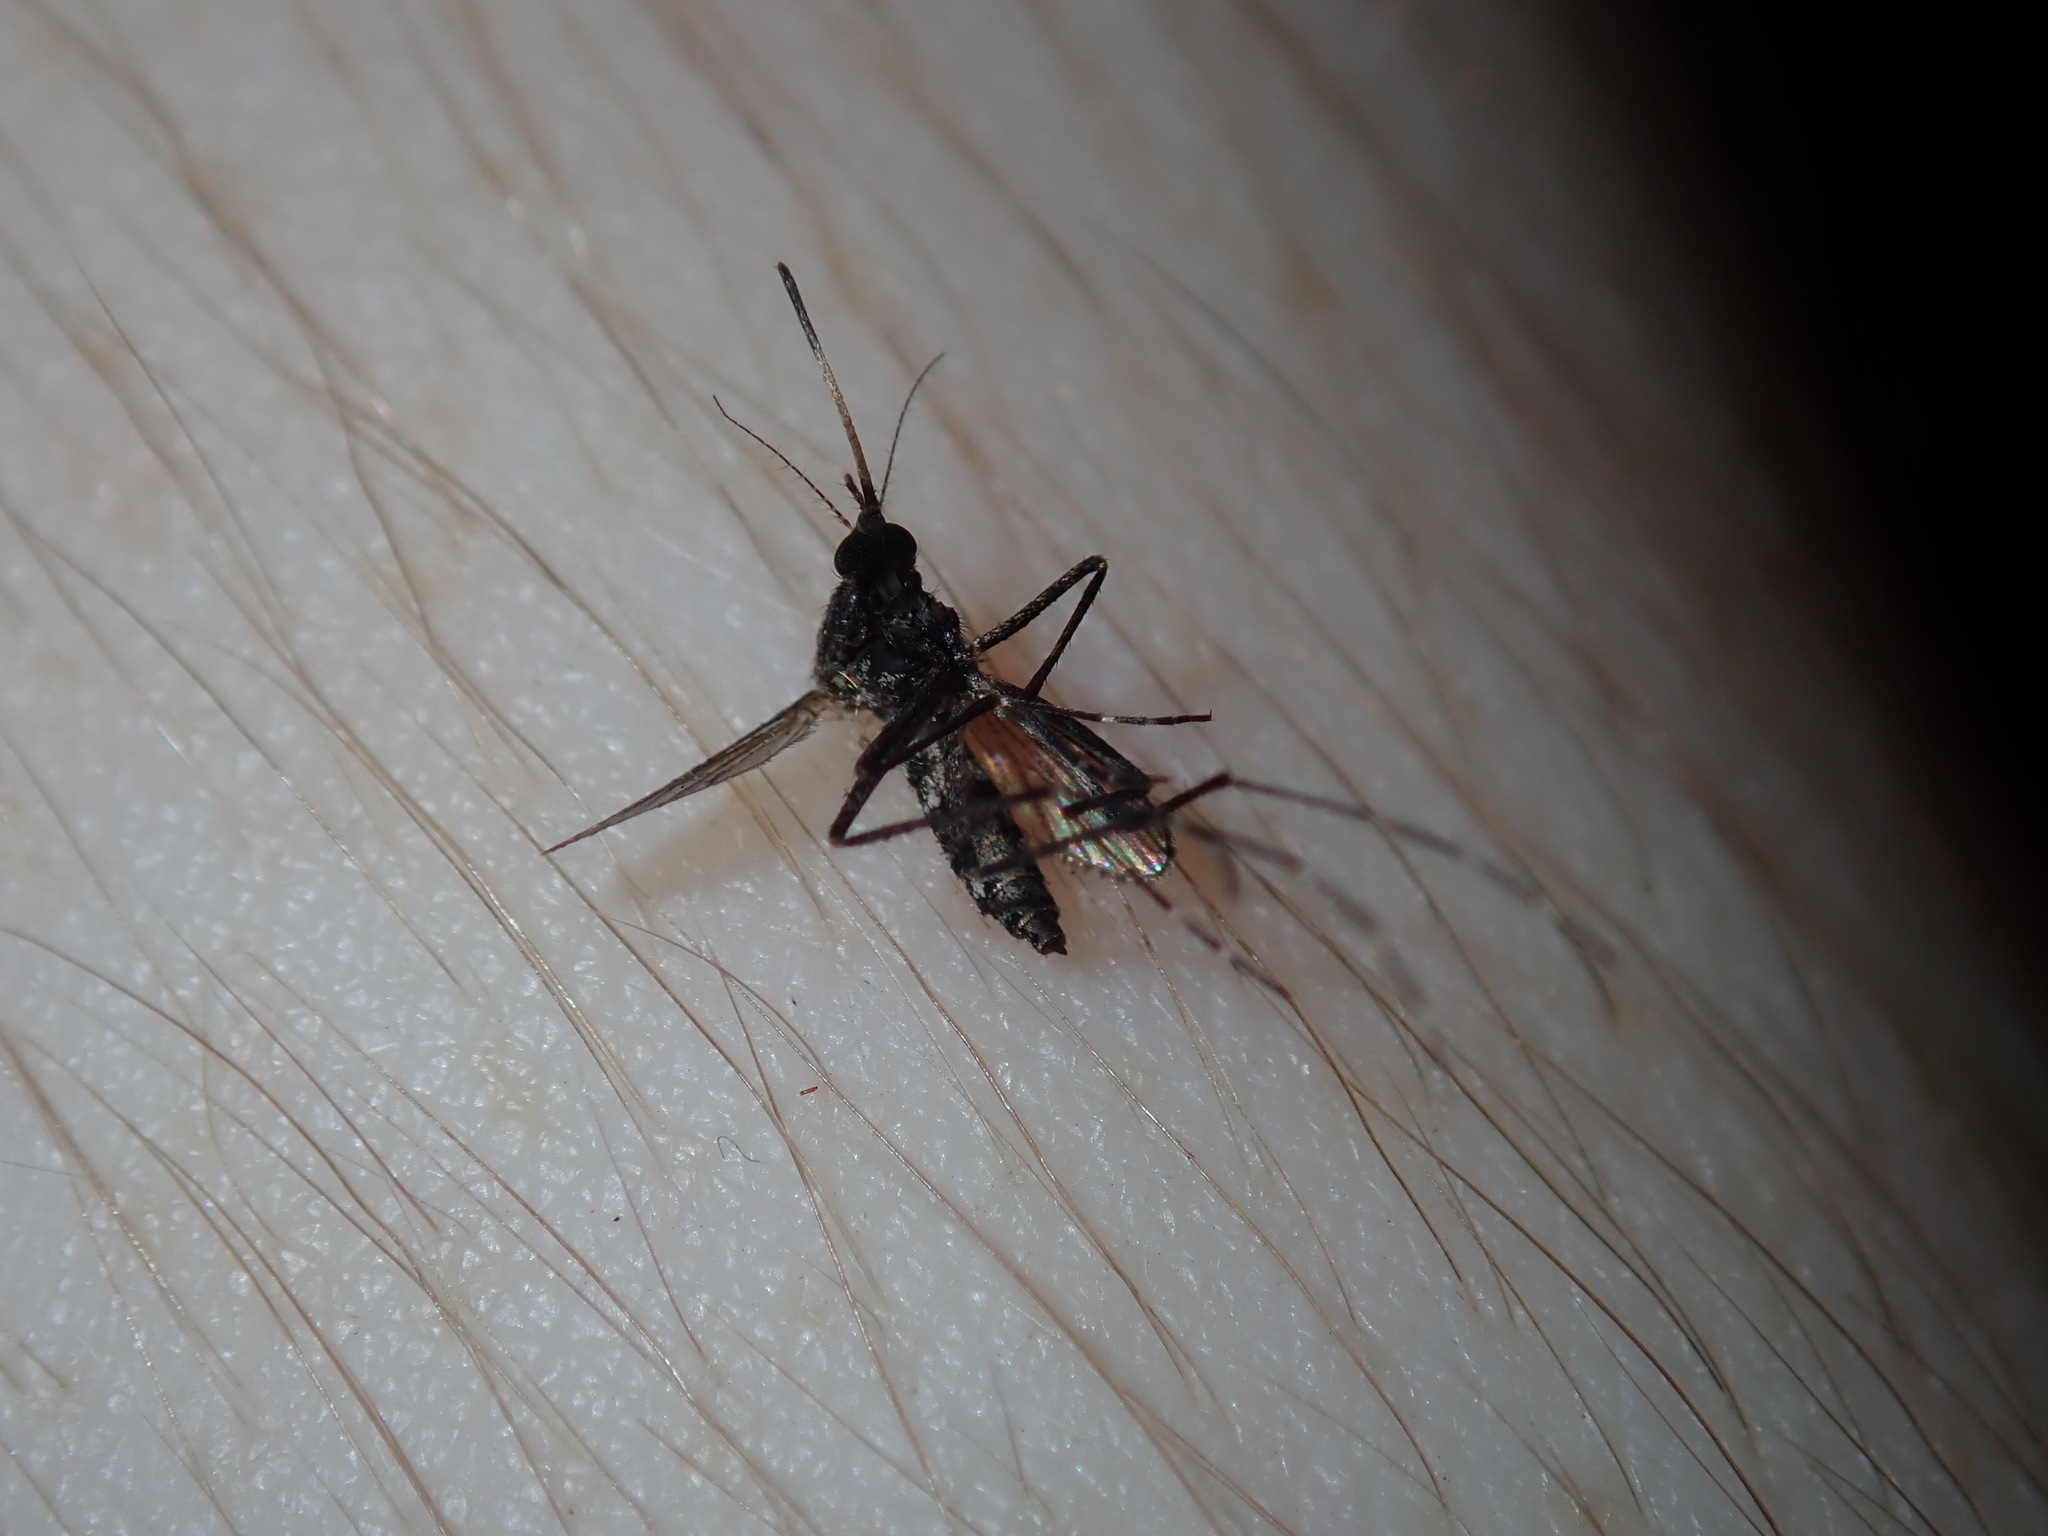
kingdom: Animalia
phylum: Arthropoda
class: Insecta
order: Diptera
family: Culicidae
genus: Aedes
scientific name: Aedes vigilax
